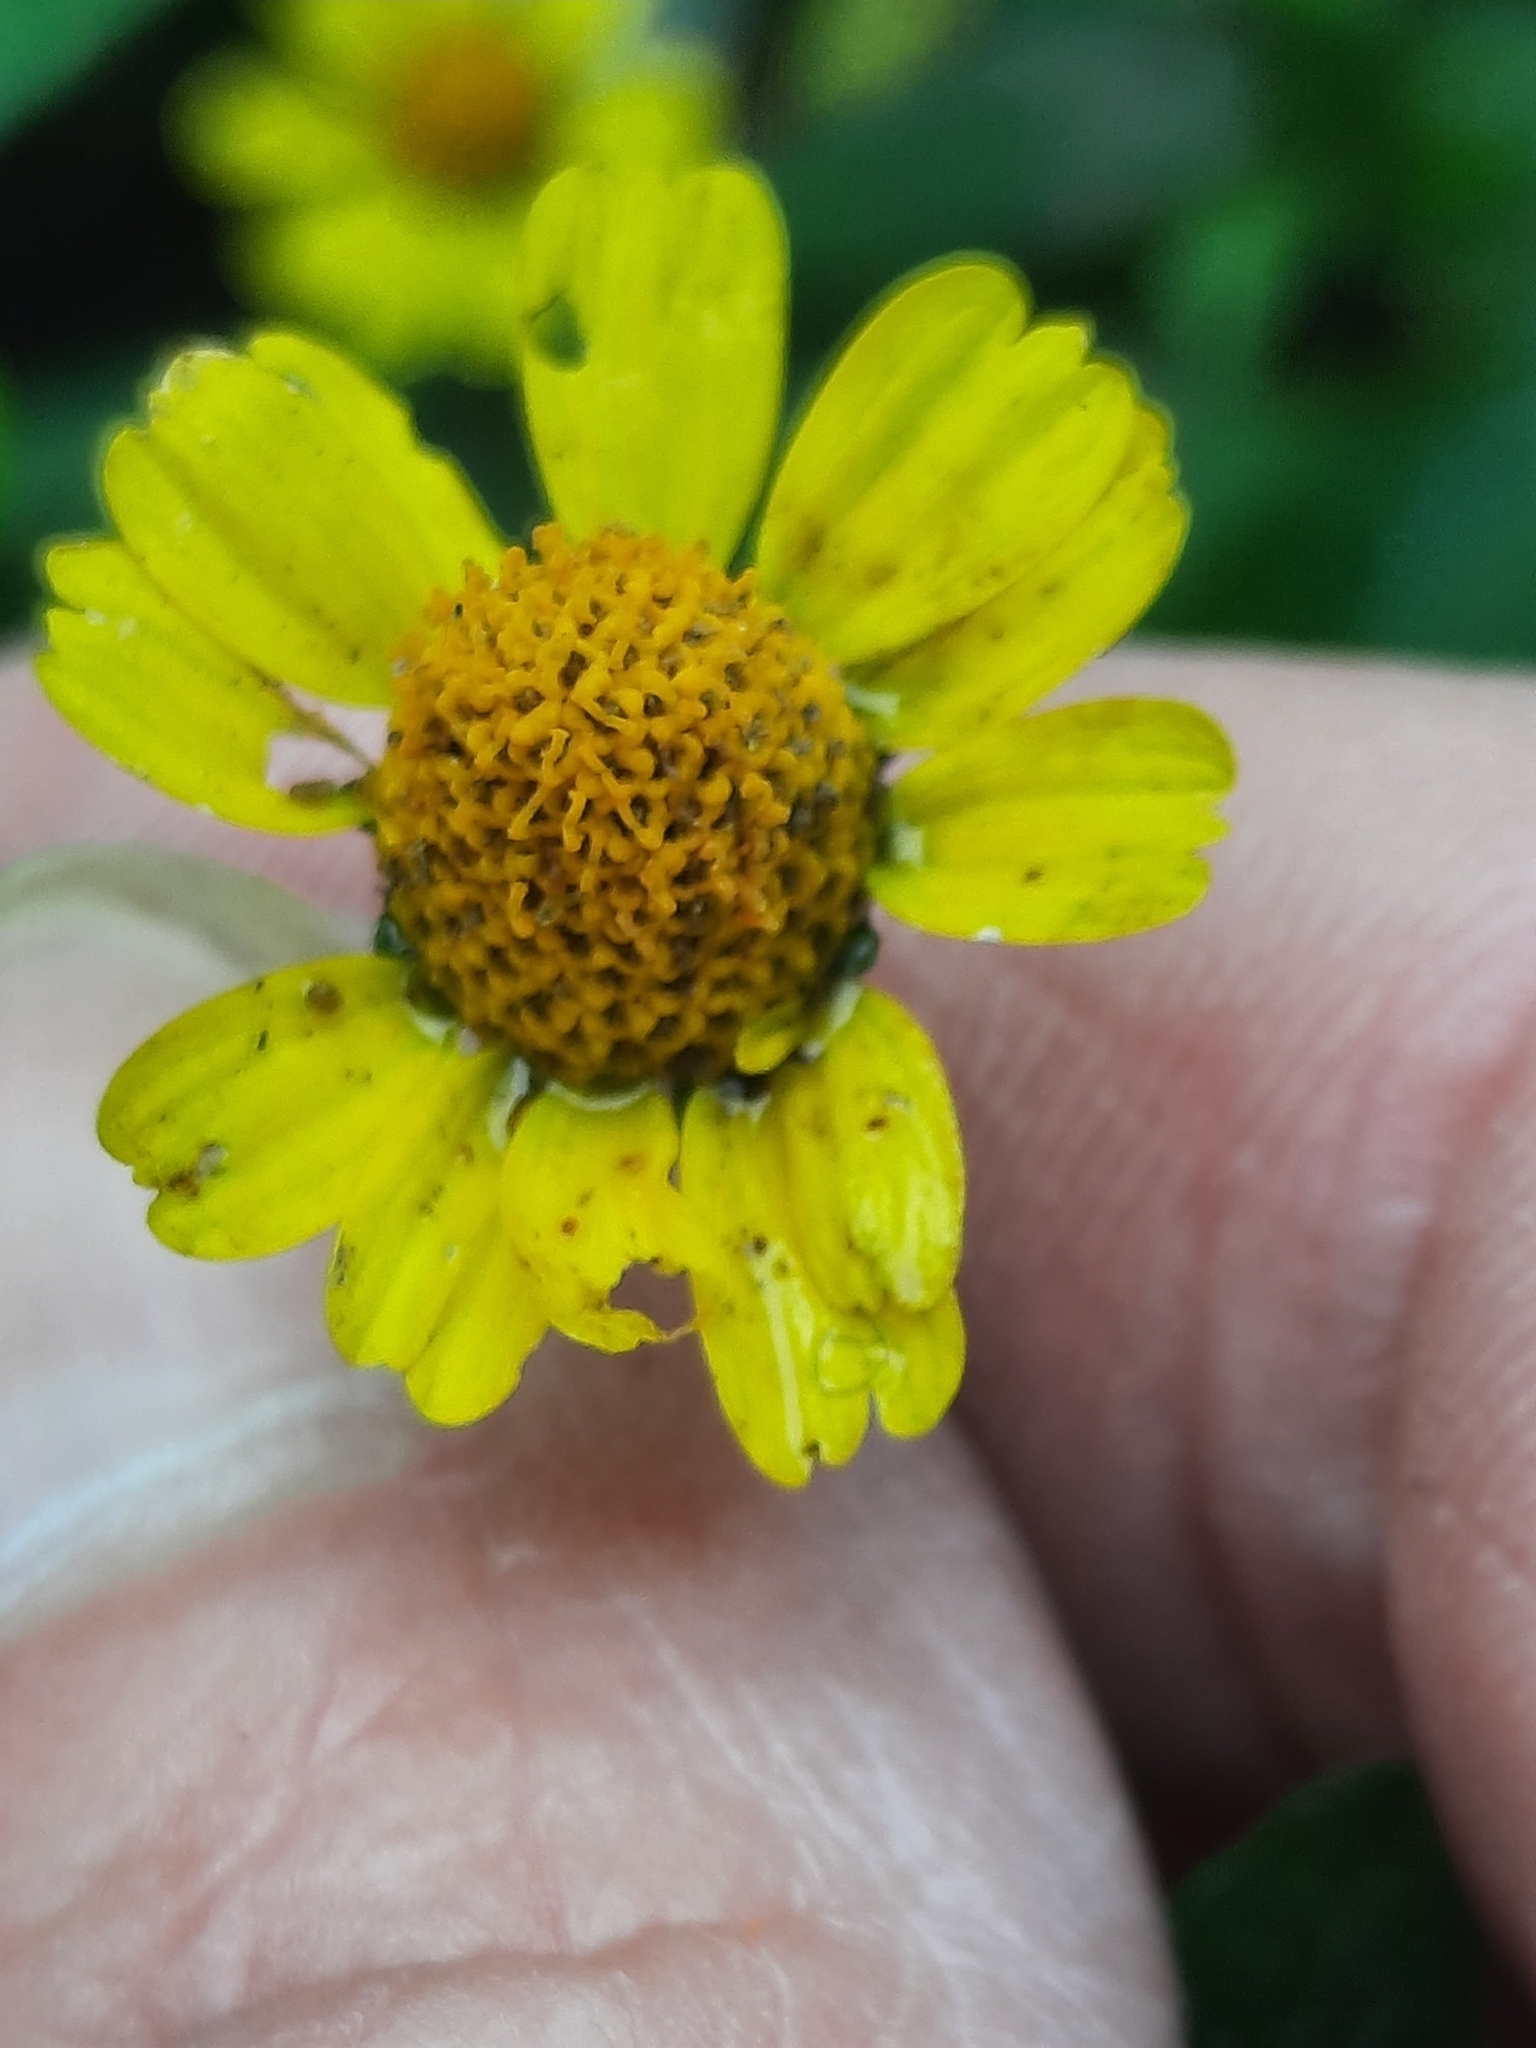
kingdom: Plantae
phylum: Tracheophyta
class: Magnoliopsida
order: Asterales
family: Asteraceae
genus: Acmella
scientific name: Acmella repens
